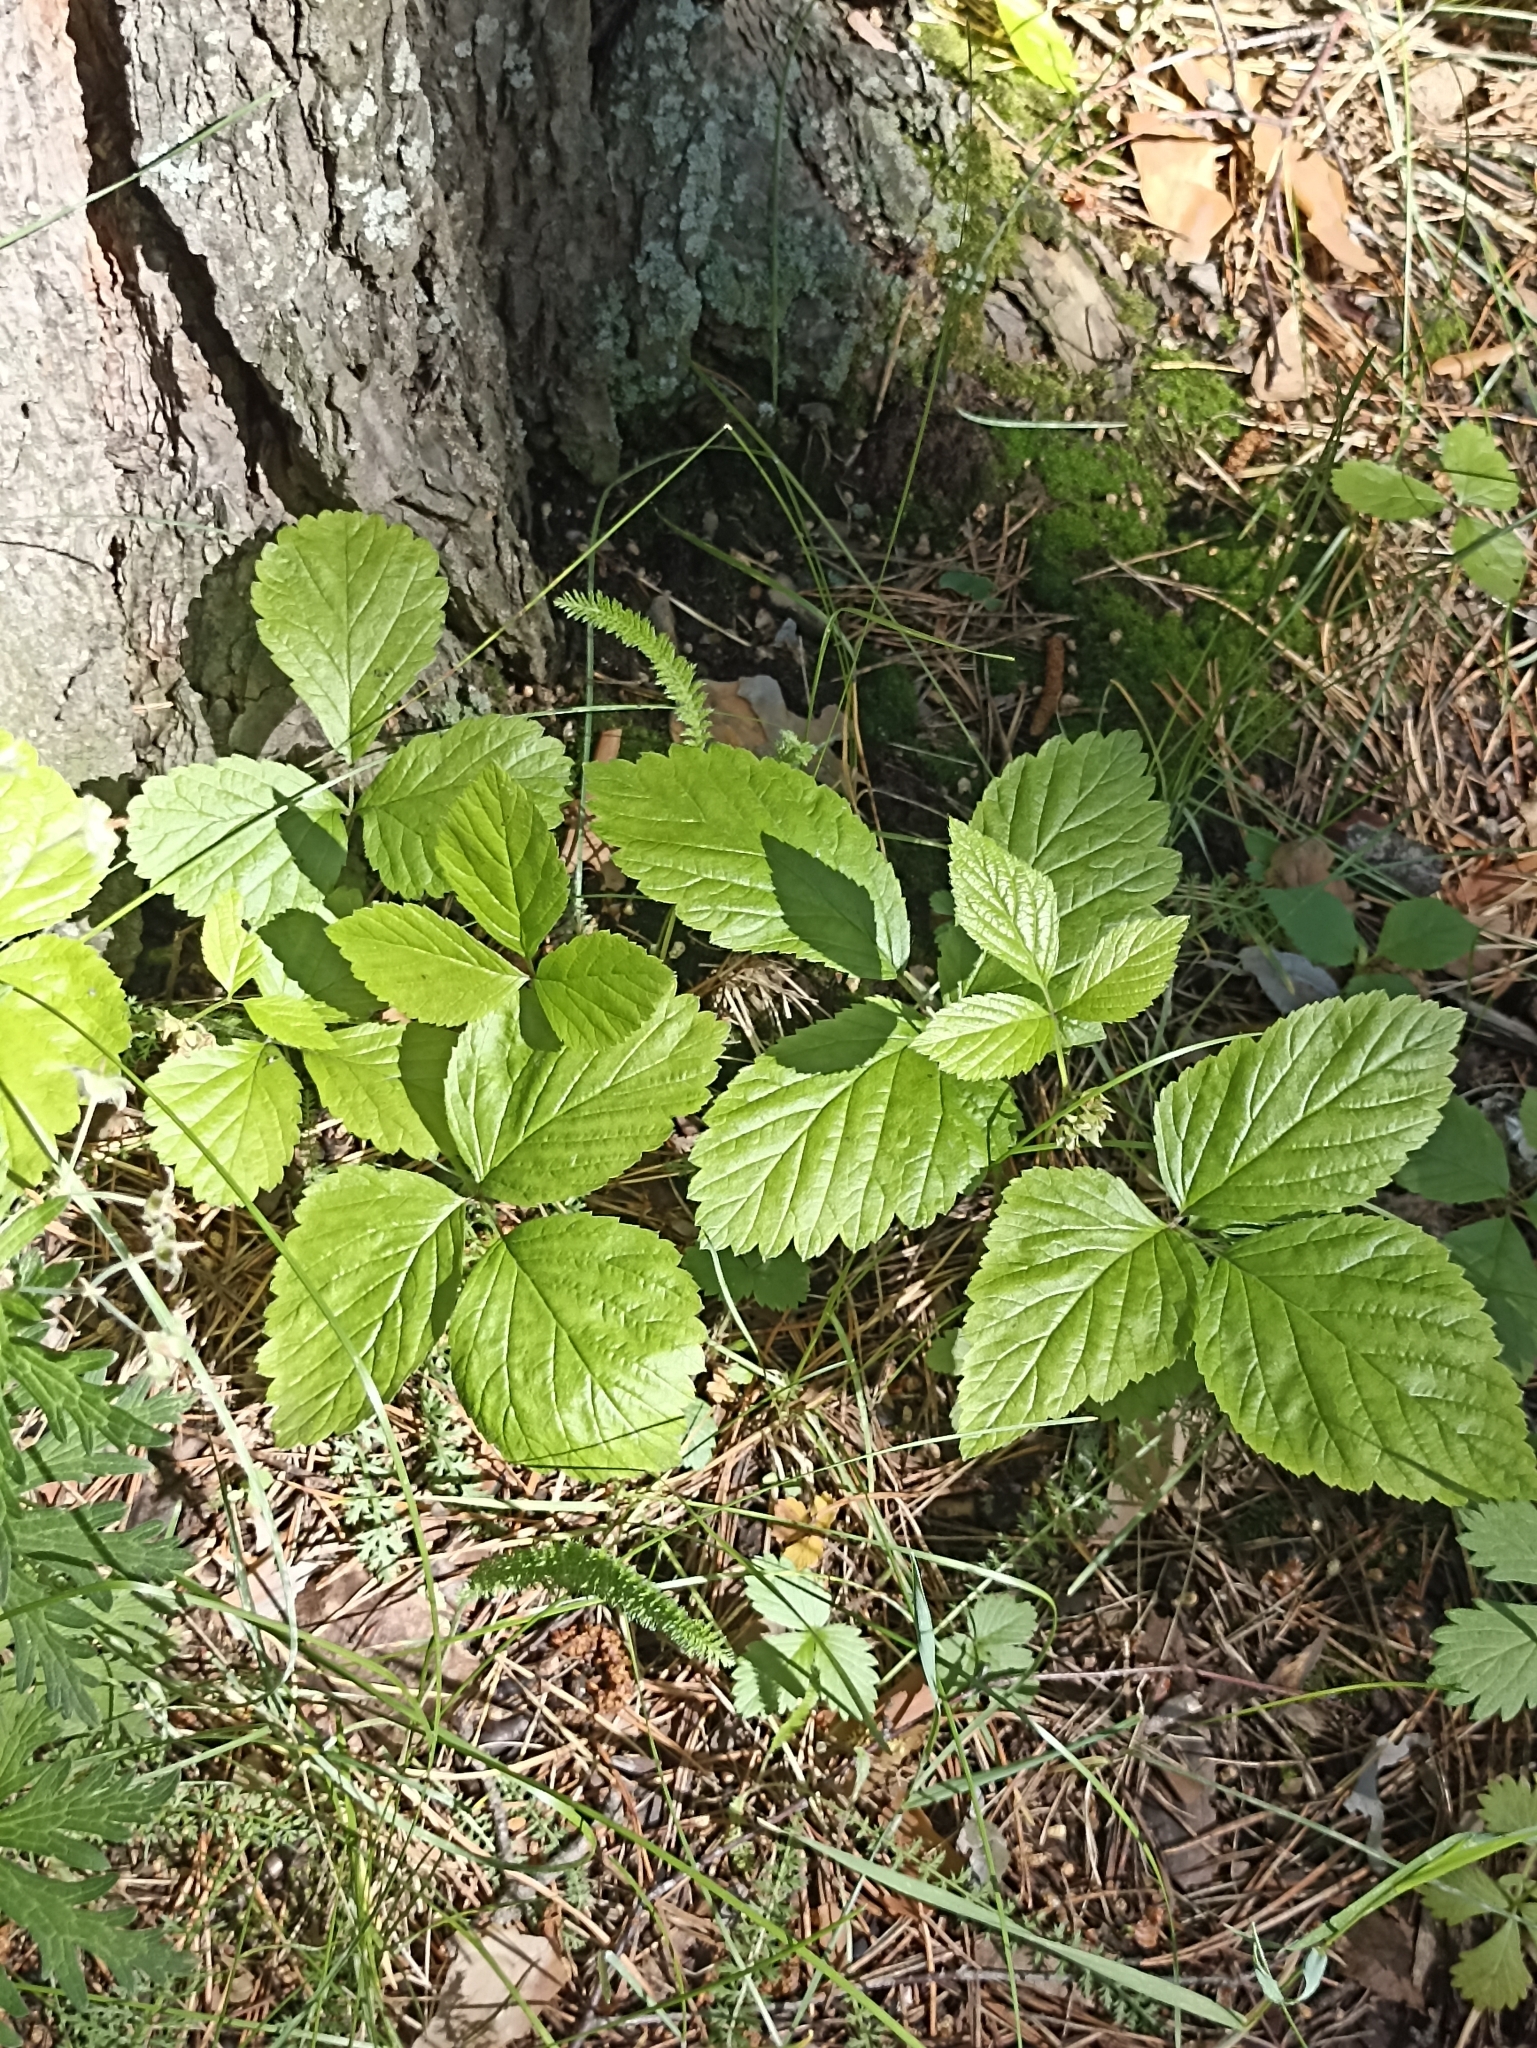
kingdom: Plantae
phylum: Tracheophyta
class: Magnoliopsida
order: Rosales
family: Rosaceae
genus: Rubus
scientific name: Rubus saxatilis
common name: Stone bramble
